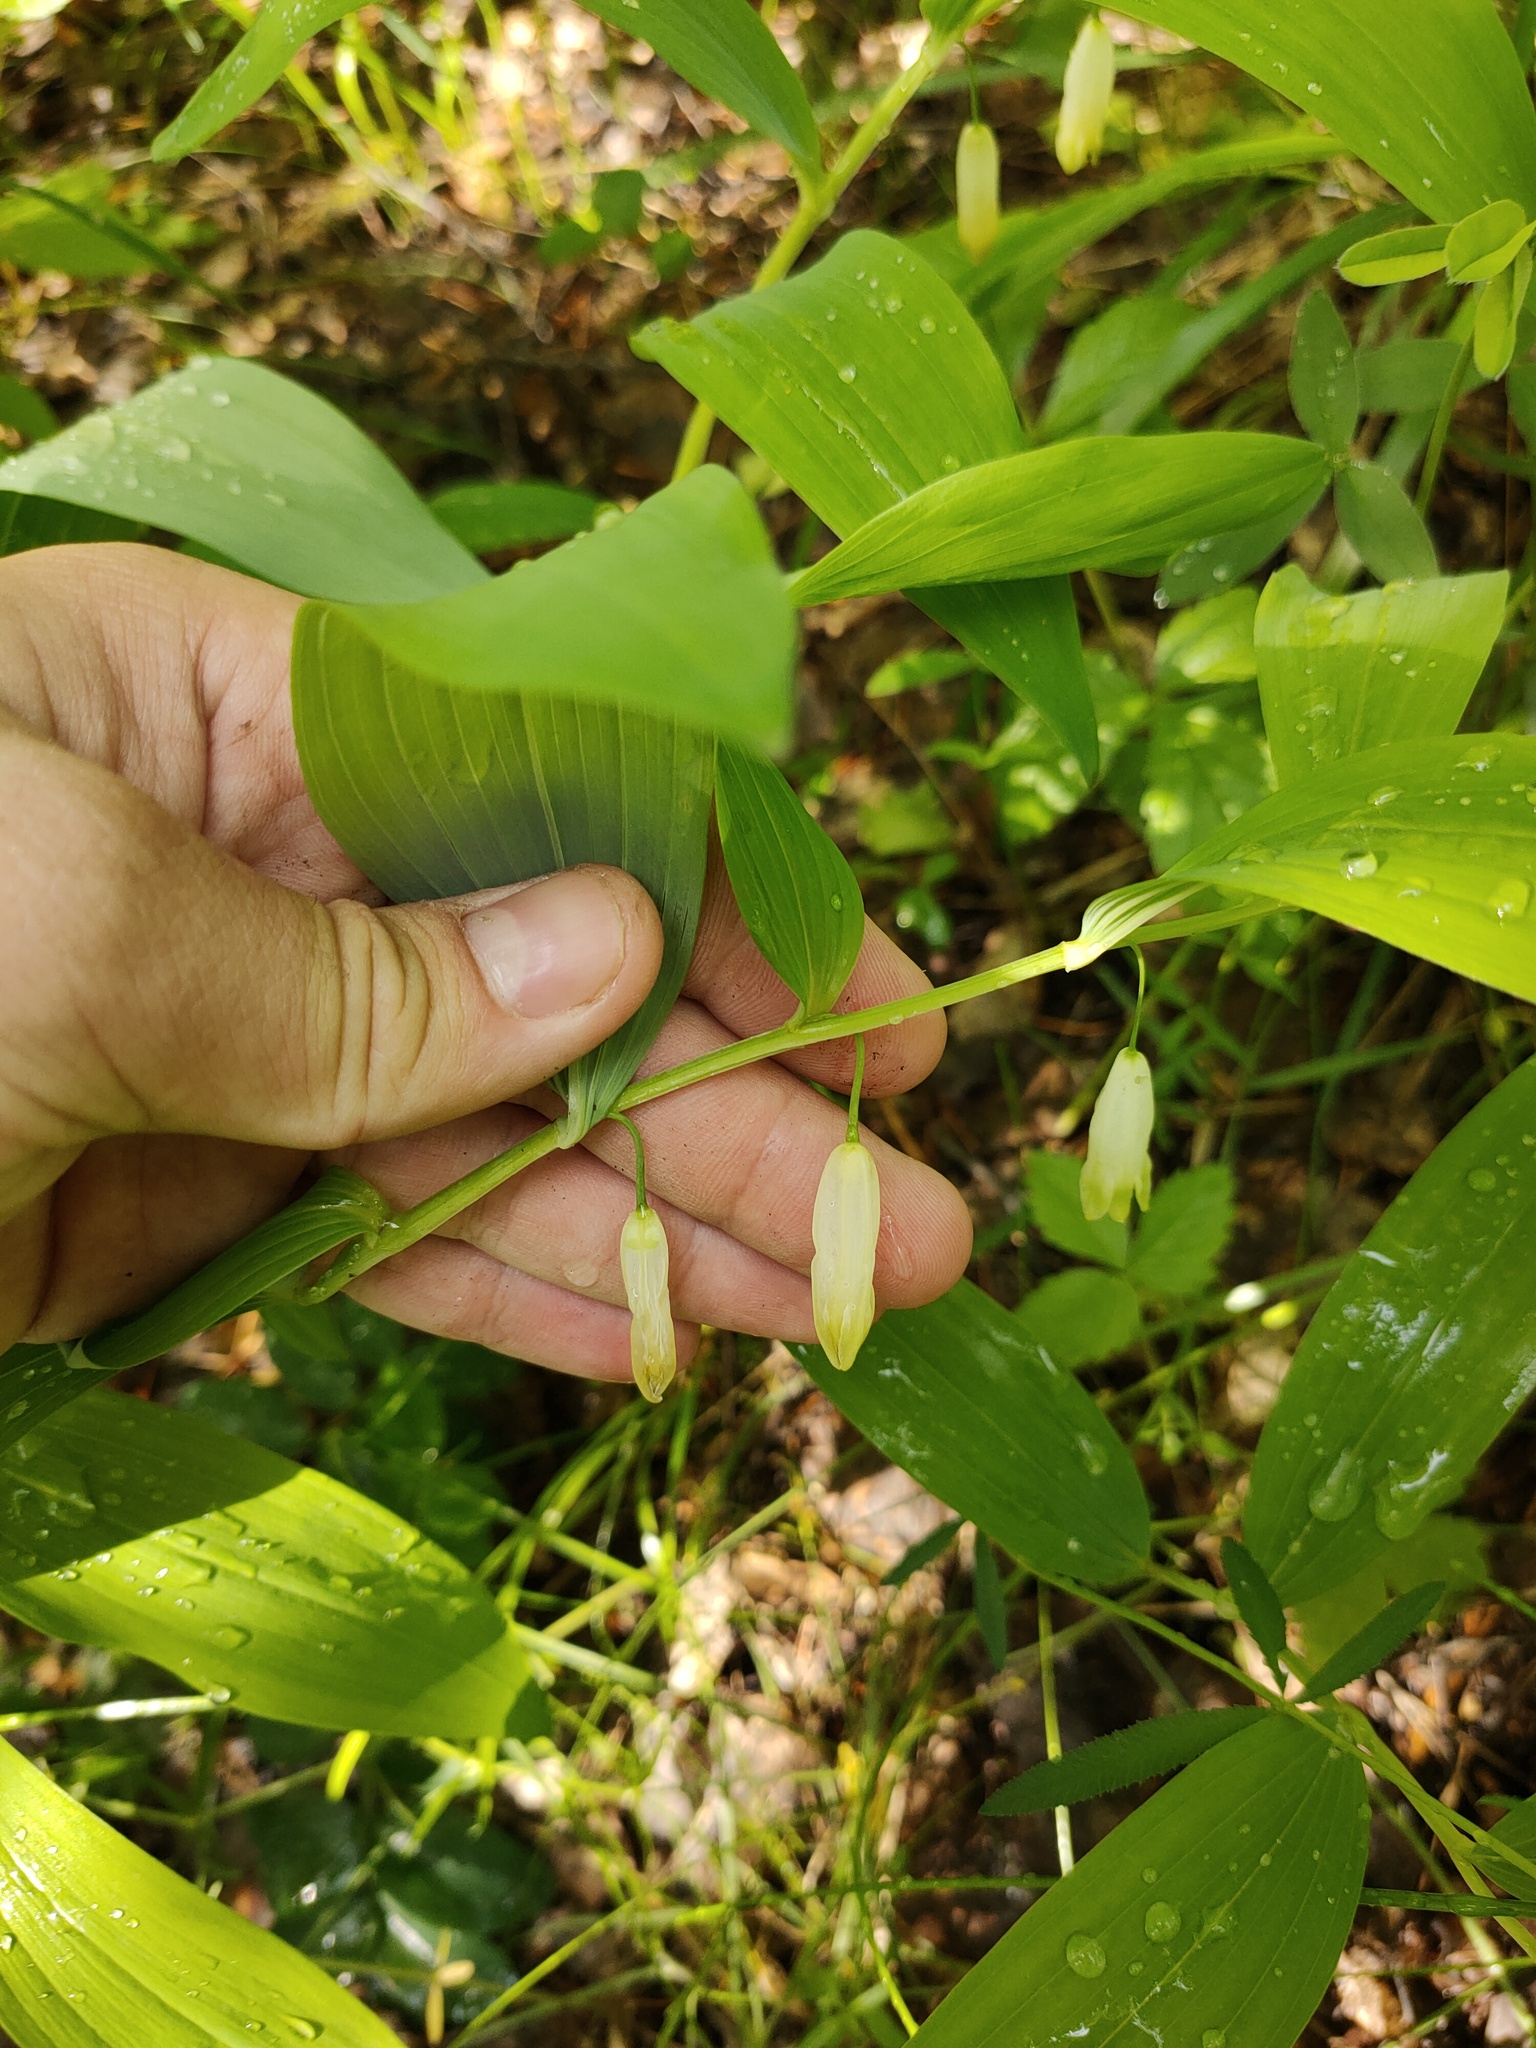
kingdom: Plantae
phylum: Tracheophyta
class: Liliopsida
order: Asparagales
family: Asparagaceae
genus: Polygonatum
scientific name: Polygonatum odoratum
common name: Angular solomon's-seal
